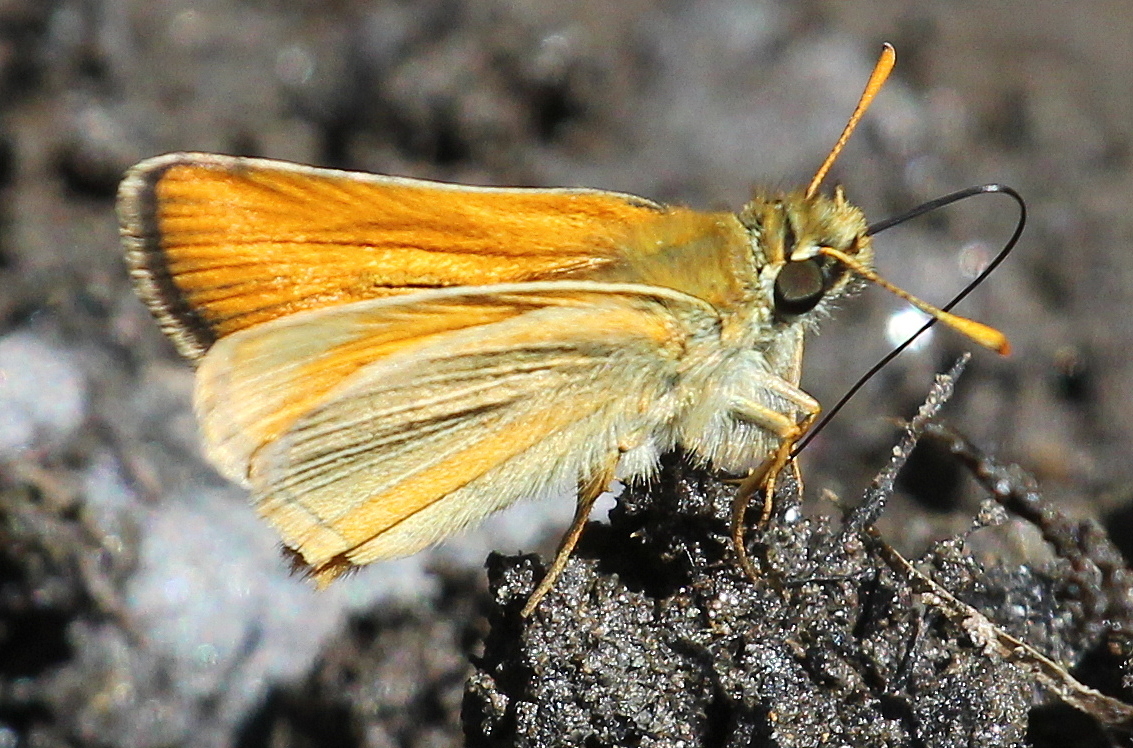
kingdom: Animalia
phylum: Arthropoda
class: Insecta
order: Lepidoptera
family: Hesperiidae
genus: Thymelicus
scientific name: Thymelicus sylvestris
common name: Small skipper
